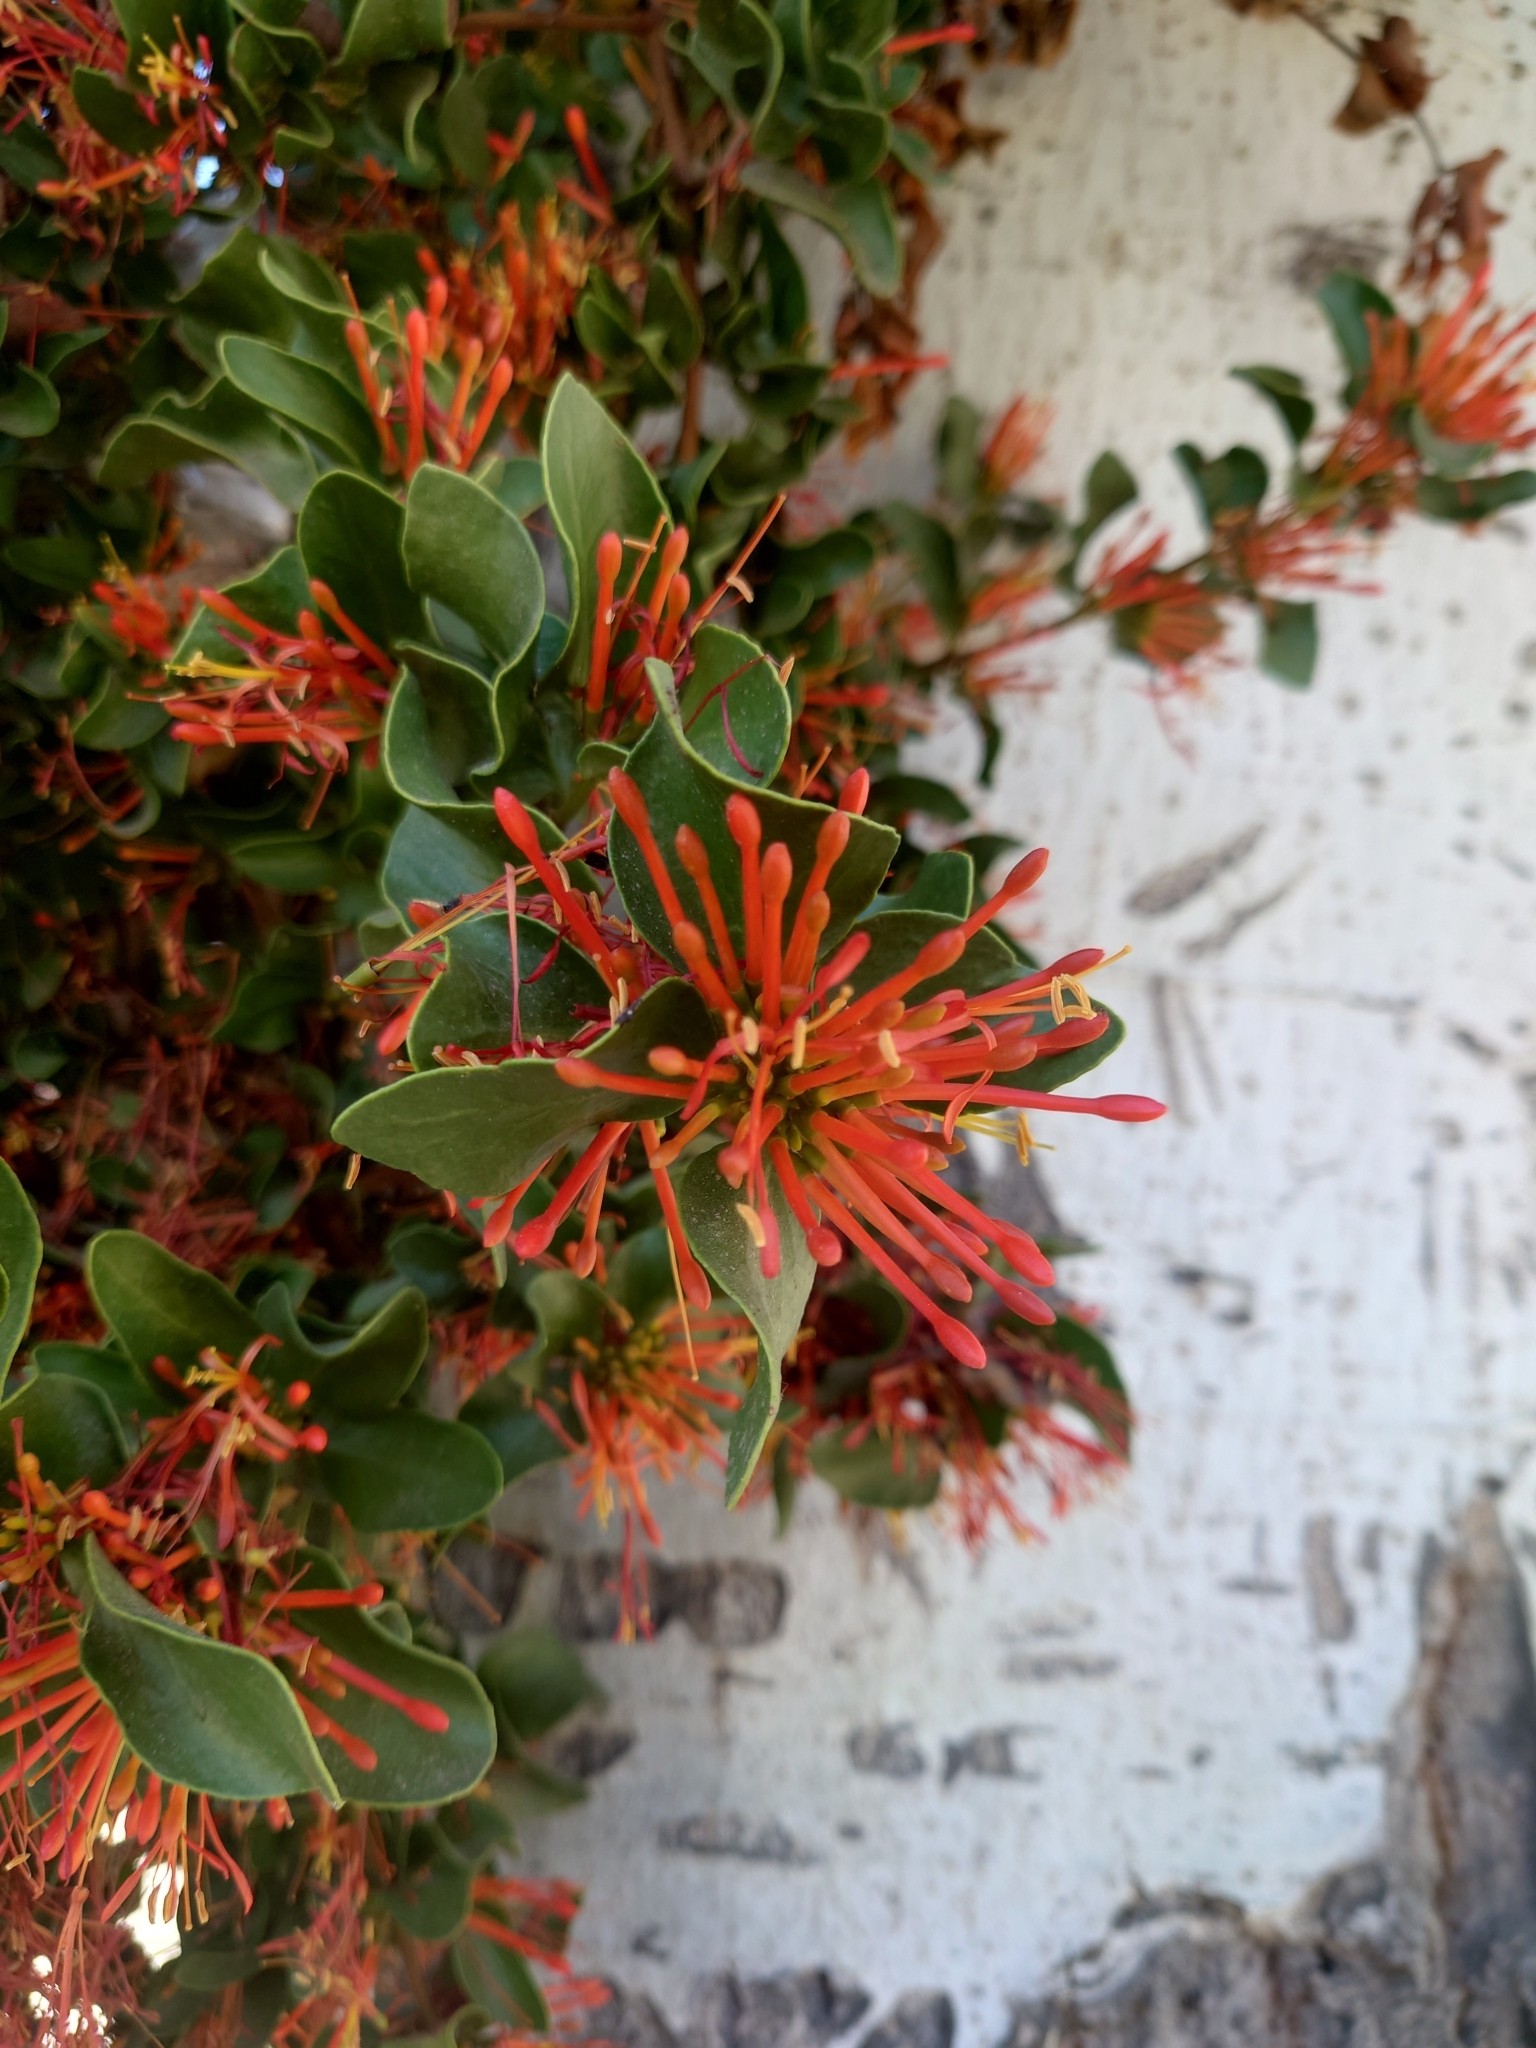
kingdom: Plantae
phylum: Tracheophyta
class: Magnoliopsida
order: Santalales
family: Loranthaceae
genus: Tristerix
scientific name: Tristerix corymbosus
